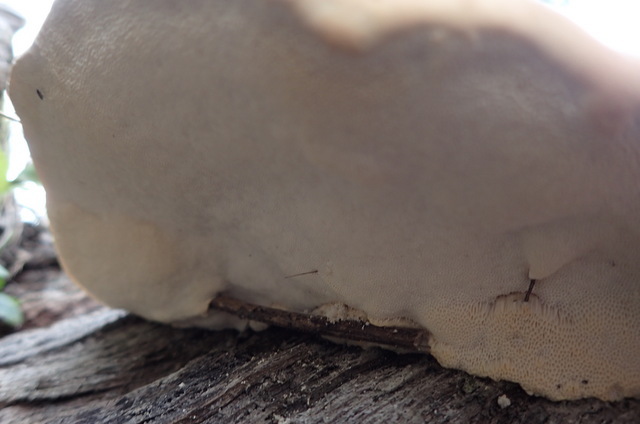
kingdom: Fungi
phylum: Basidiomycota
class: Agaricomycetes
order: Polyporales
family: Polyporaceae
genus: Trametes
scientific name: Trametes lactinea
